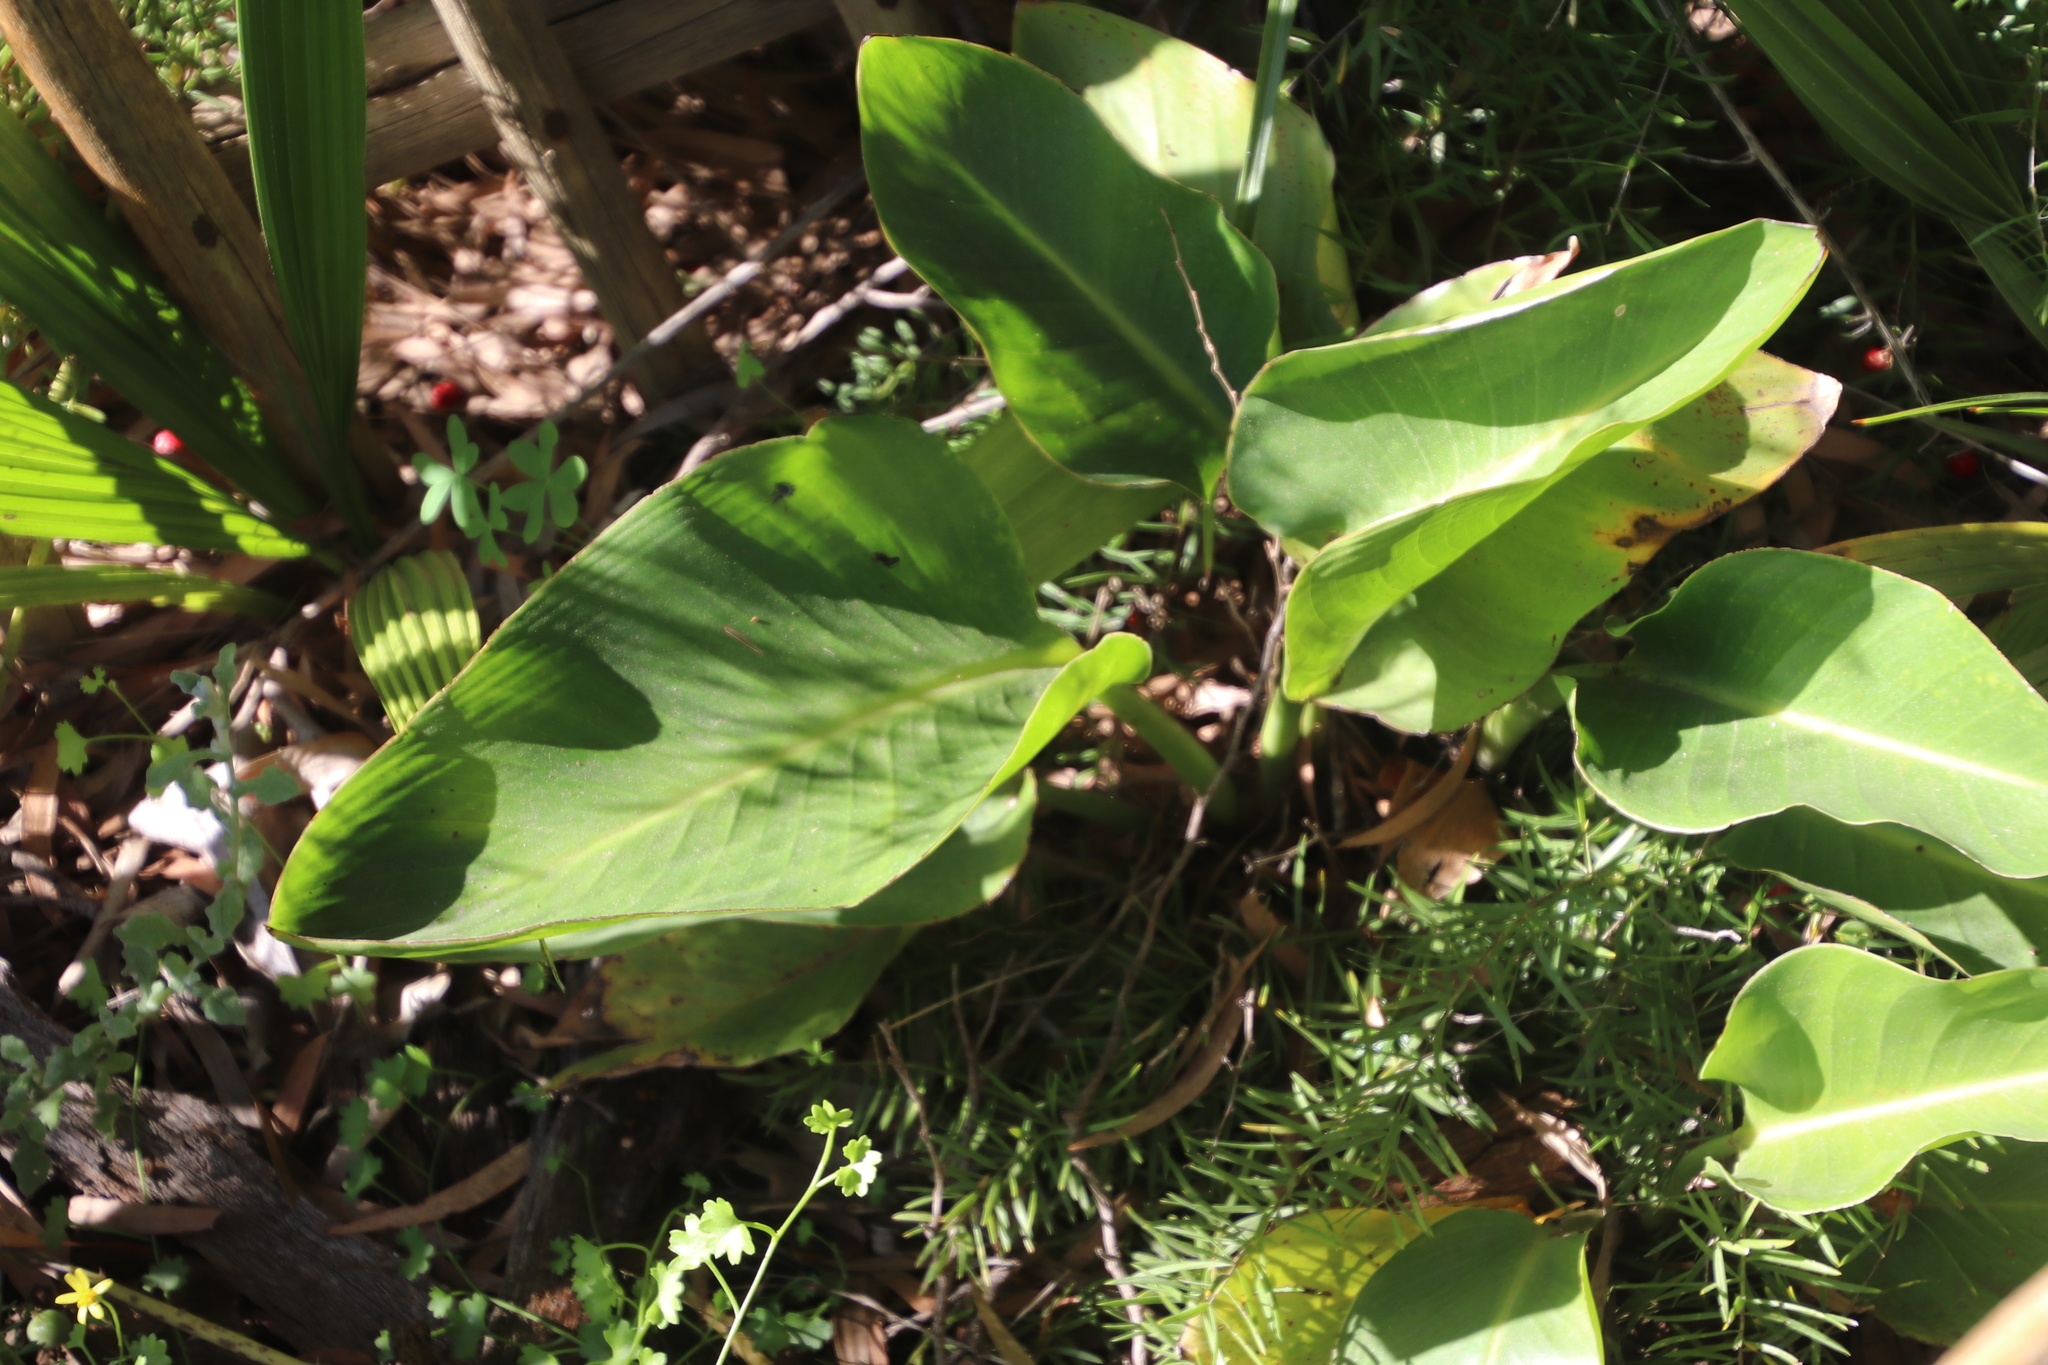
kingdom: Plantae
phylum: Tracheophyta
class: Liliopsida
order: Zingiberales
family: Strelitziaceae
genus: Strelitzia
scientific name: Strelitzia nicolai
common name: Bird-of-paradise tree
